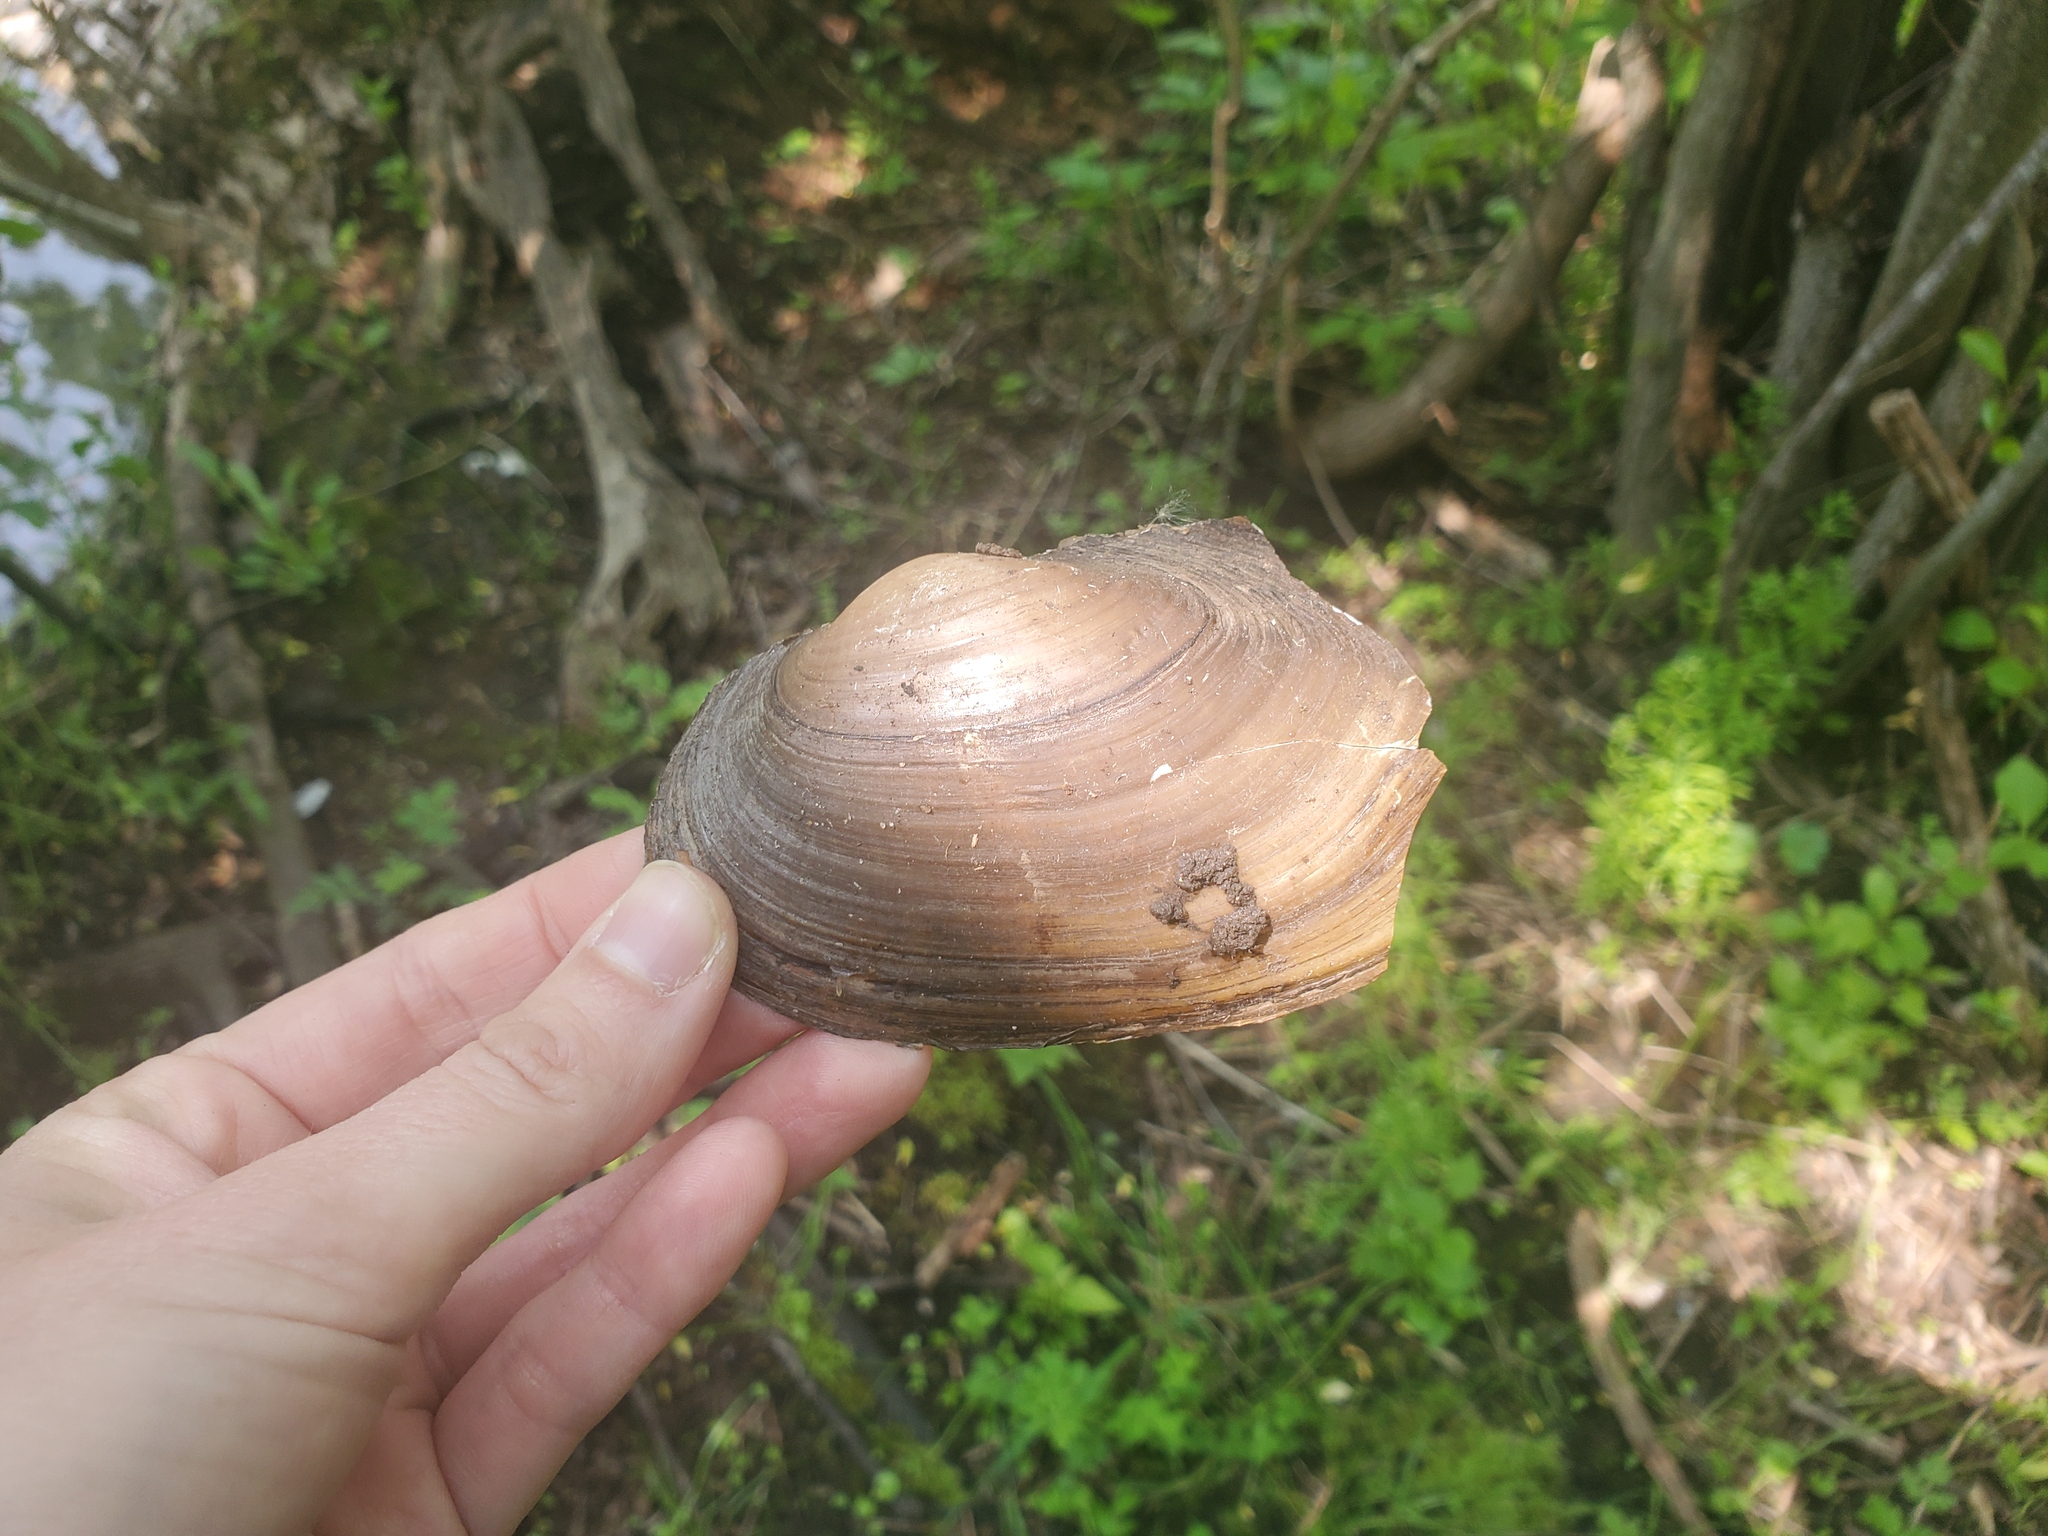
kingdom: Animalia
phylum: Mollusca
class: Bivalvia
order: Unionida
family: Unionidae
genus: Pyganodon
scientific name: Pyganodon grandis
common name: Giant floater
